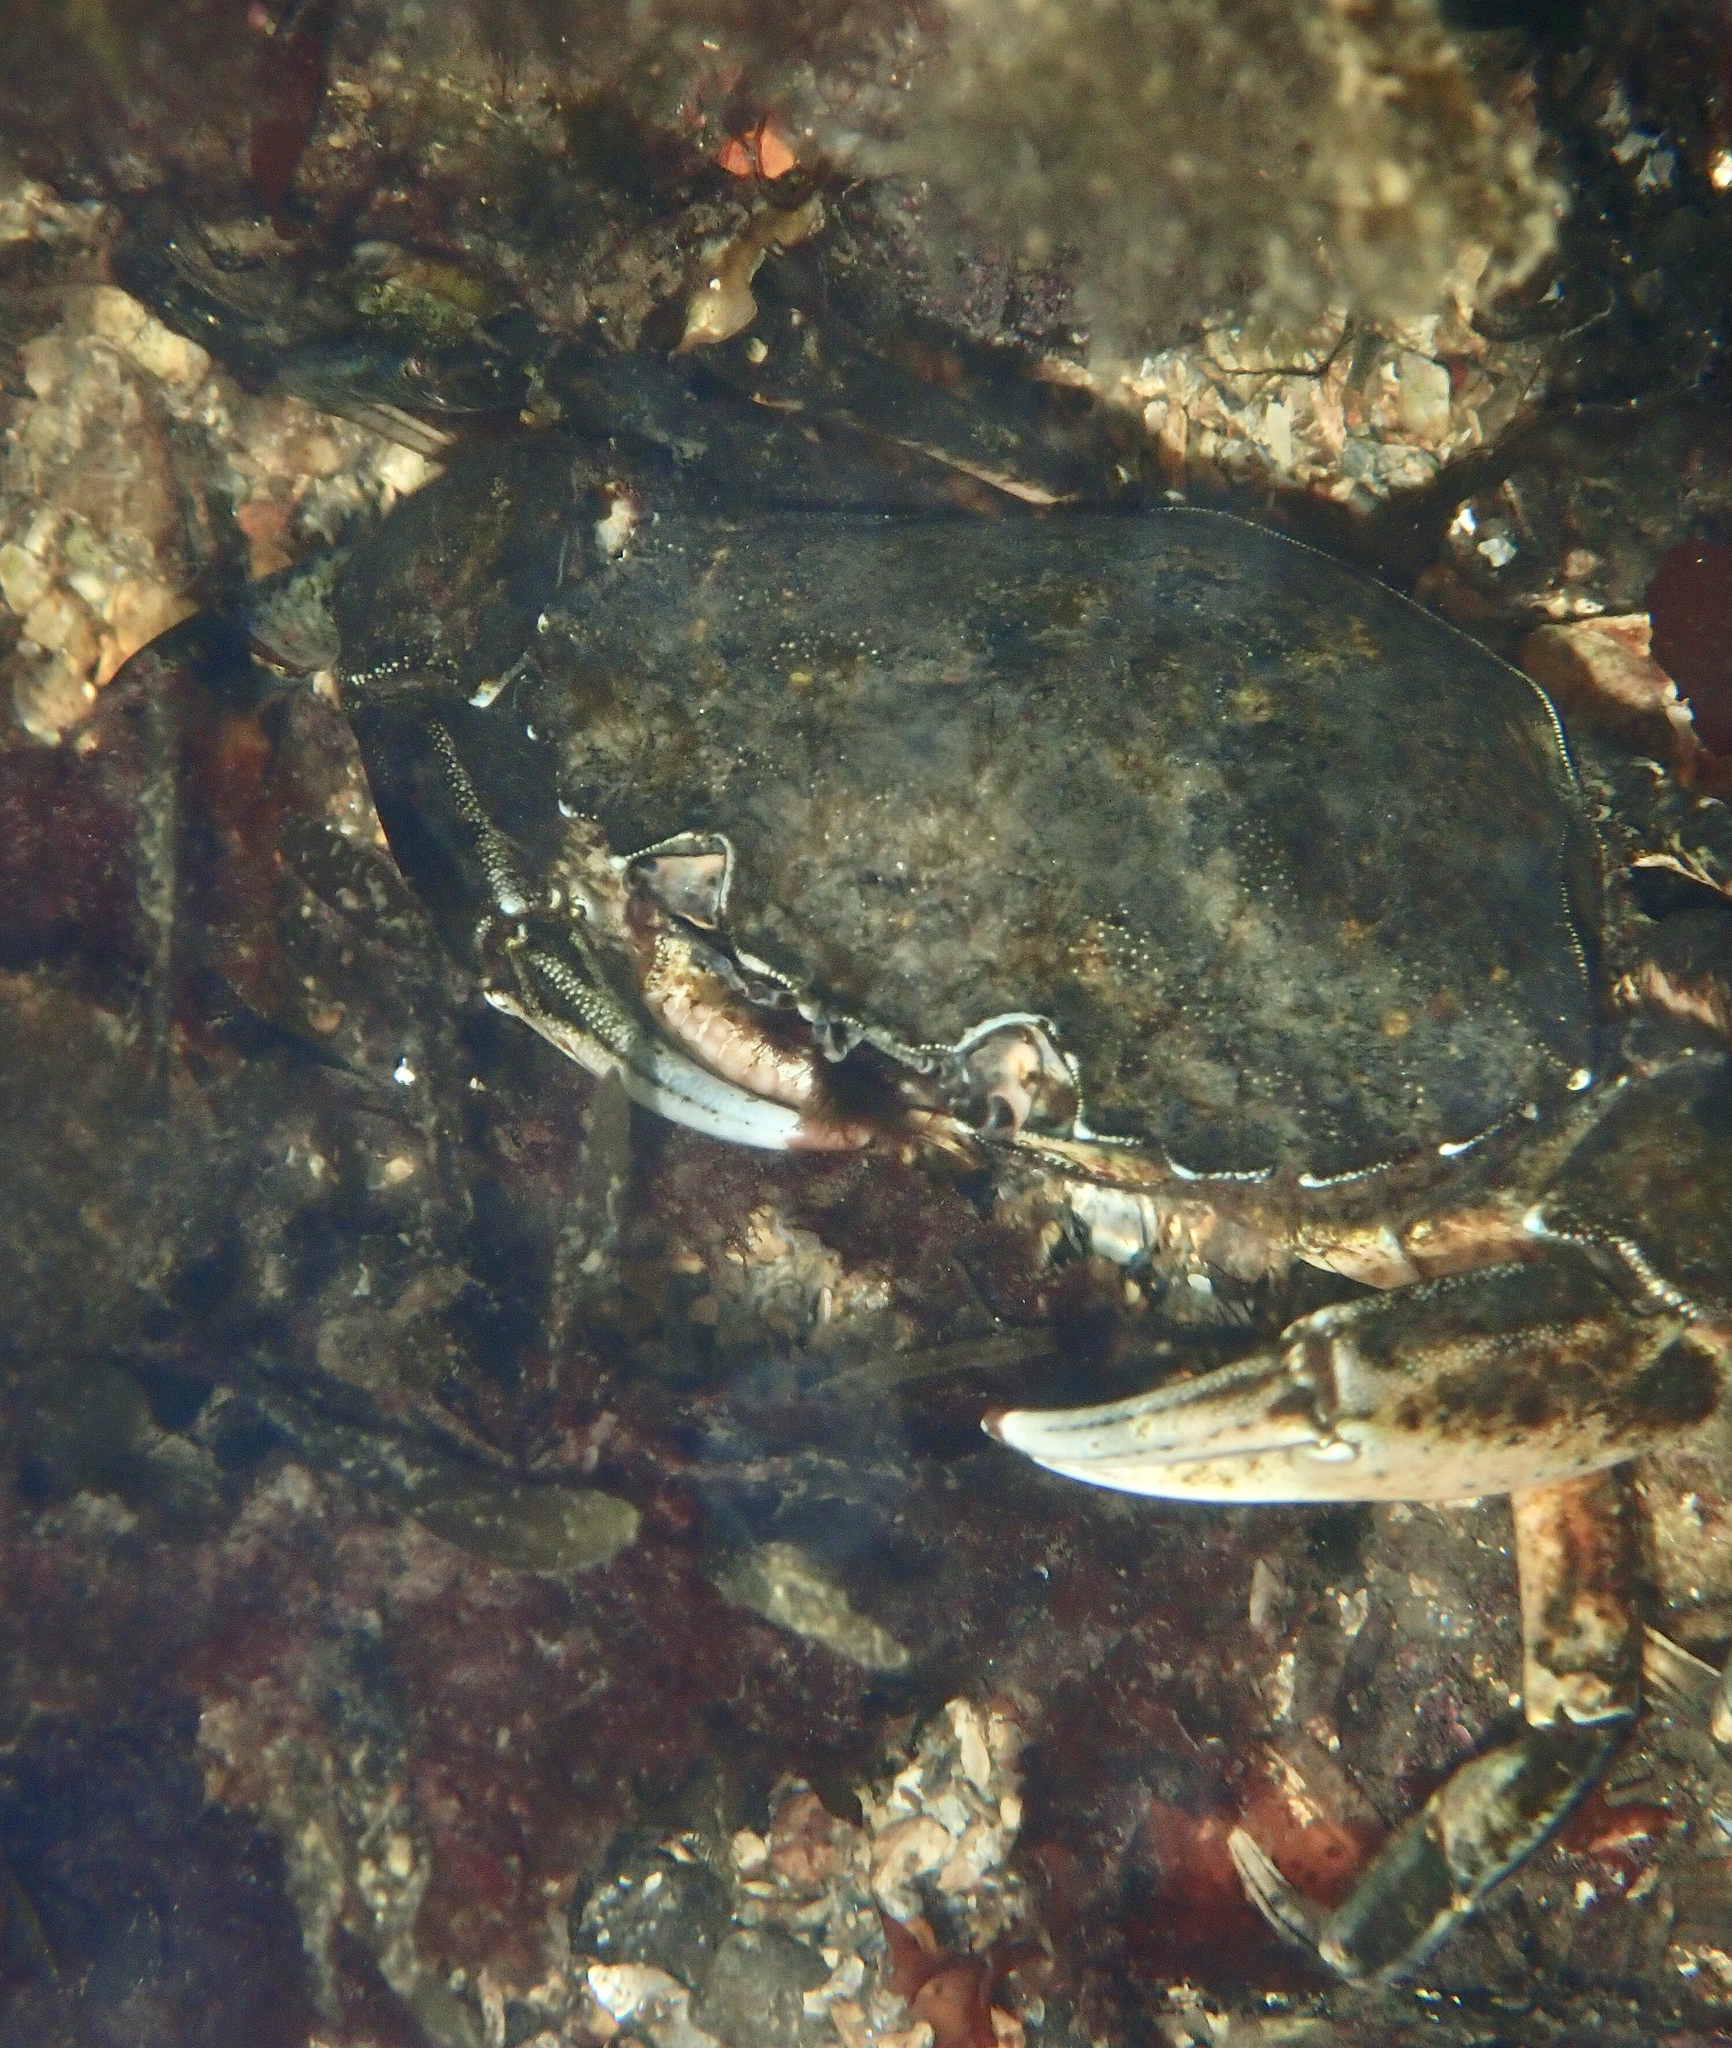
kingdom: Animalia
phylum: Arthropoda
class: Malacostraca
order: Decapoda
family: Carcinidae
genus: Carcinus
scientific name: Carcinus maenas
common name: European green crab
